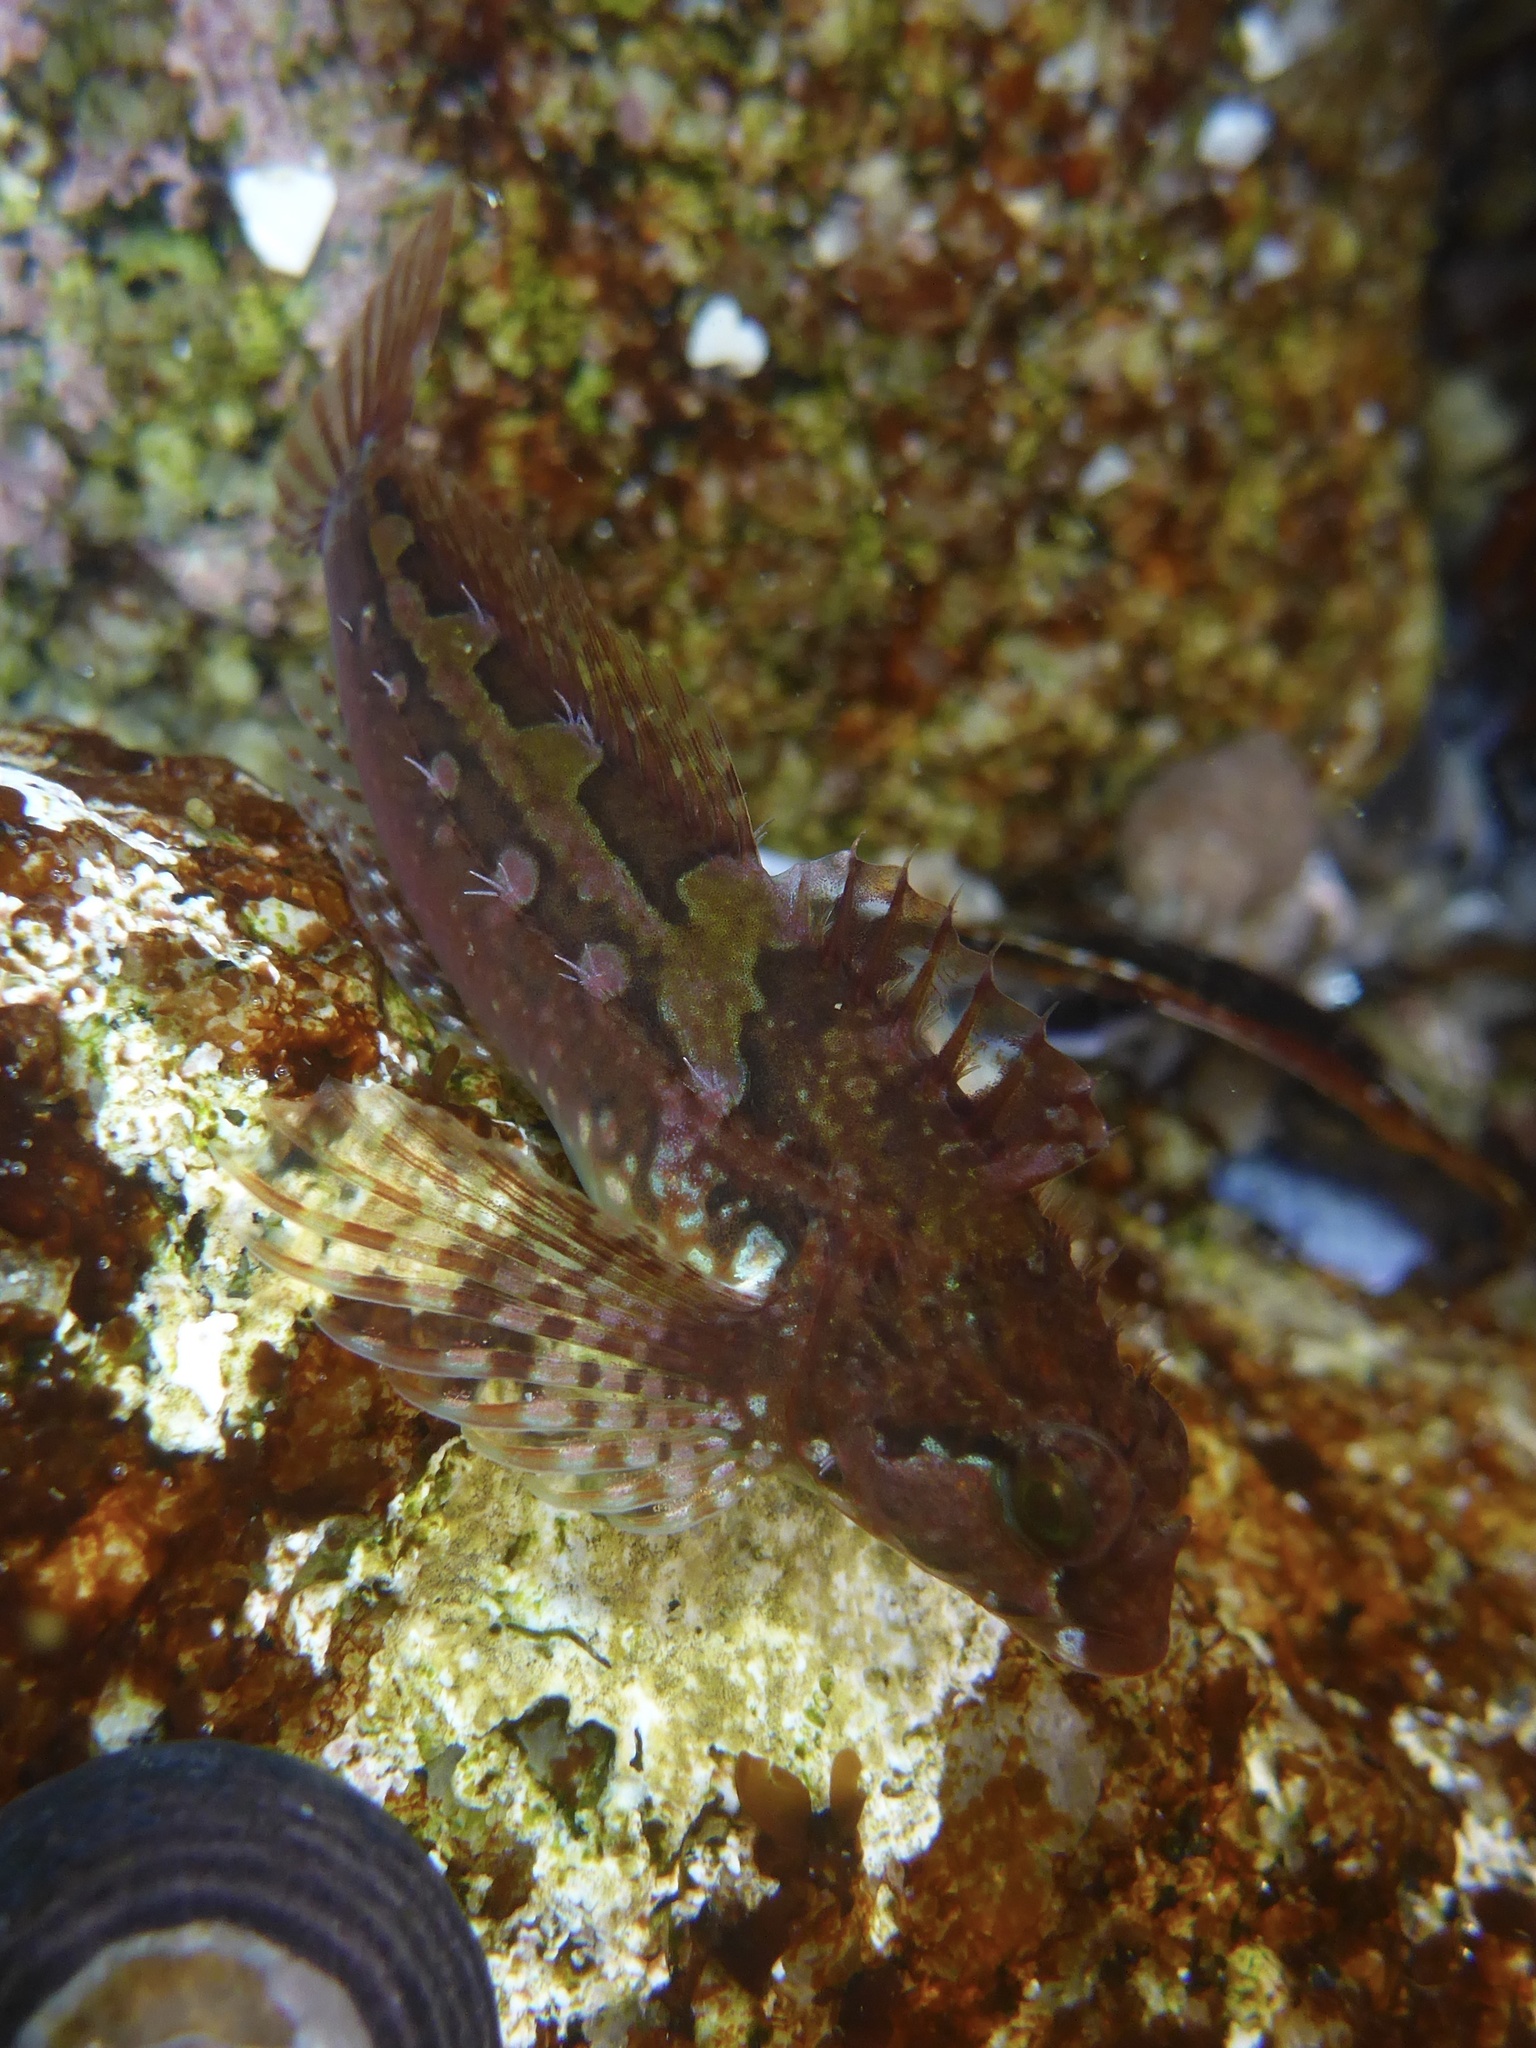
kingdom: Animalia
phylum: Chordata
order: Scorpaeniformes
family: Cottidae
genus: Oligocottus
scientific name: Oligocottus snyderi
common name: Fluffy sculpin
